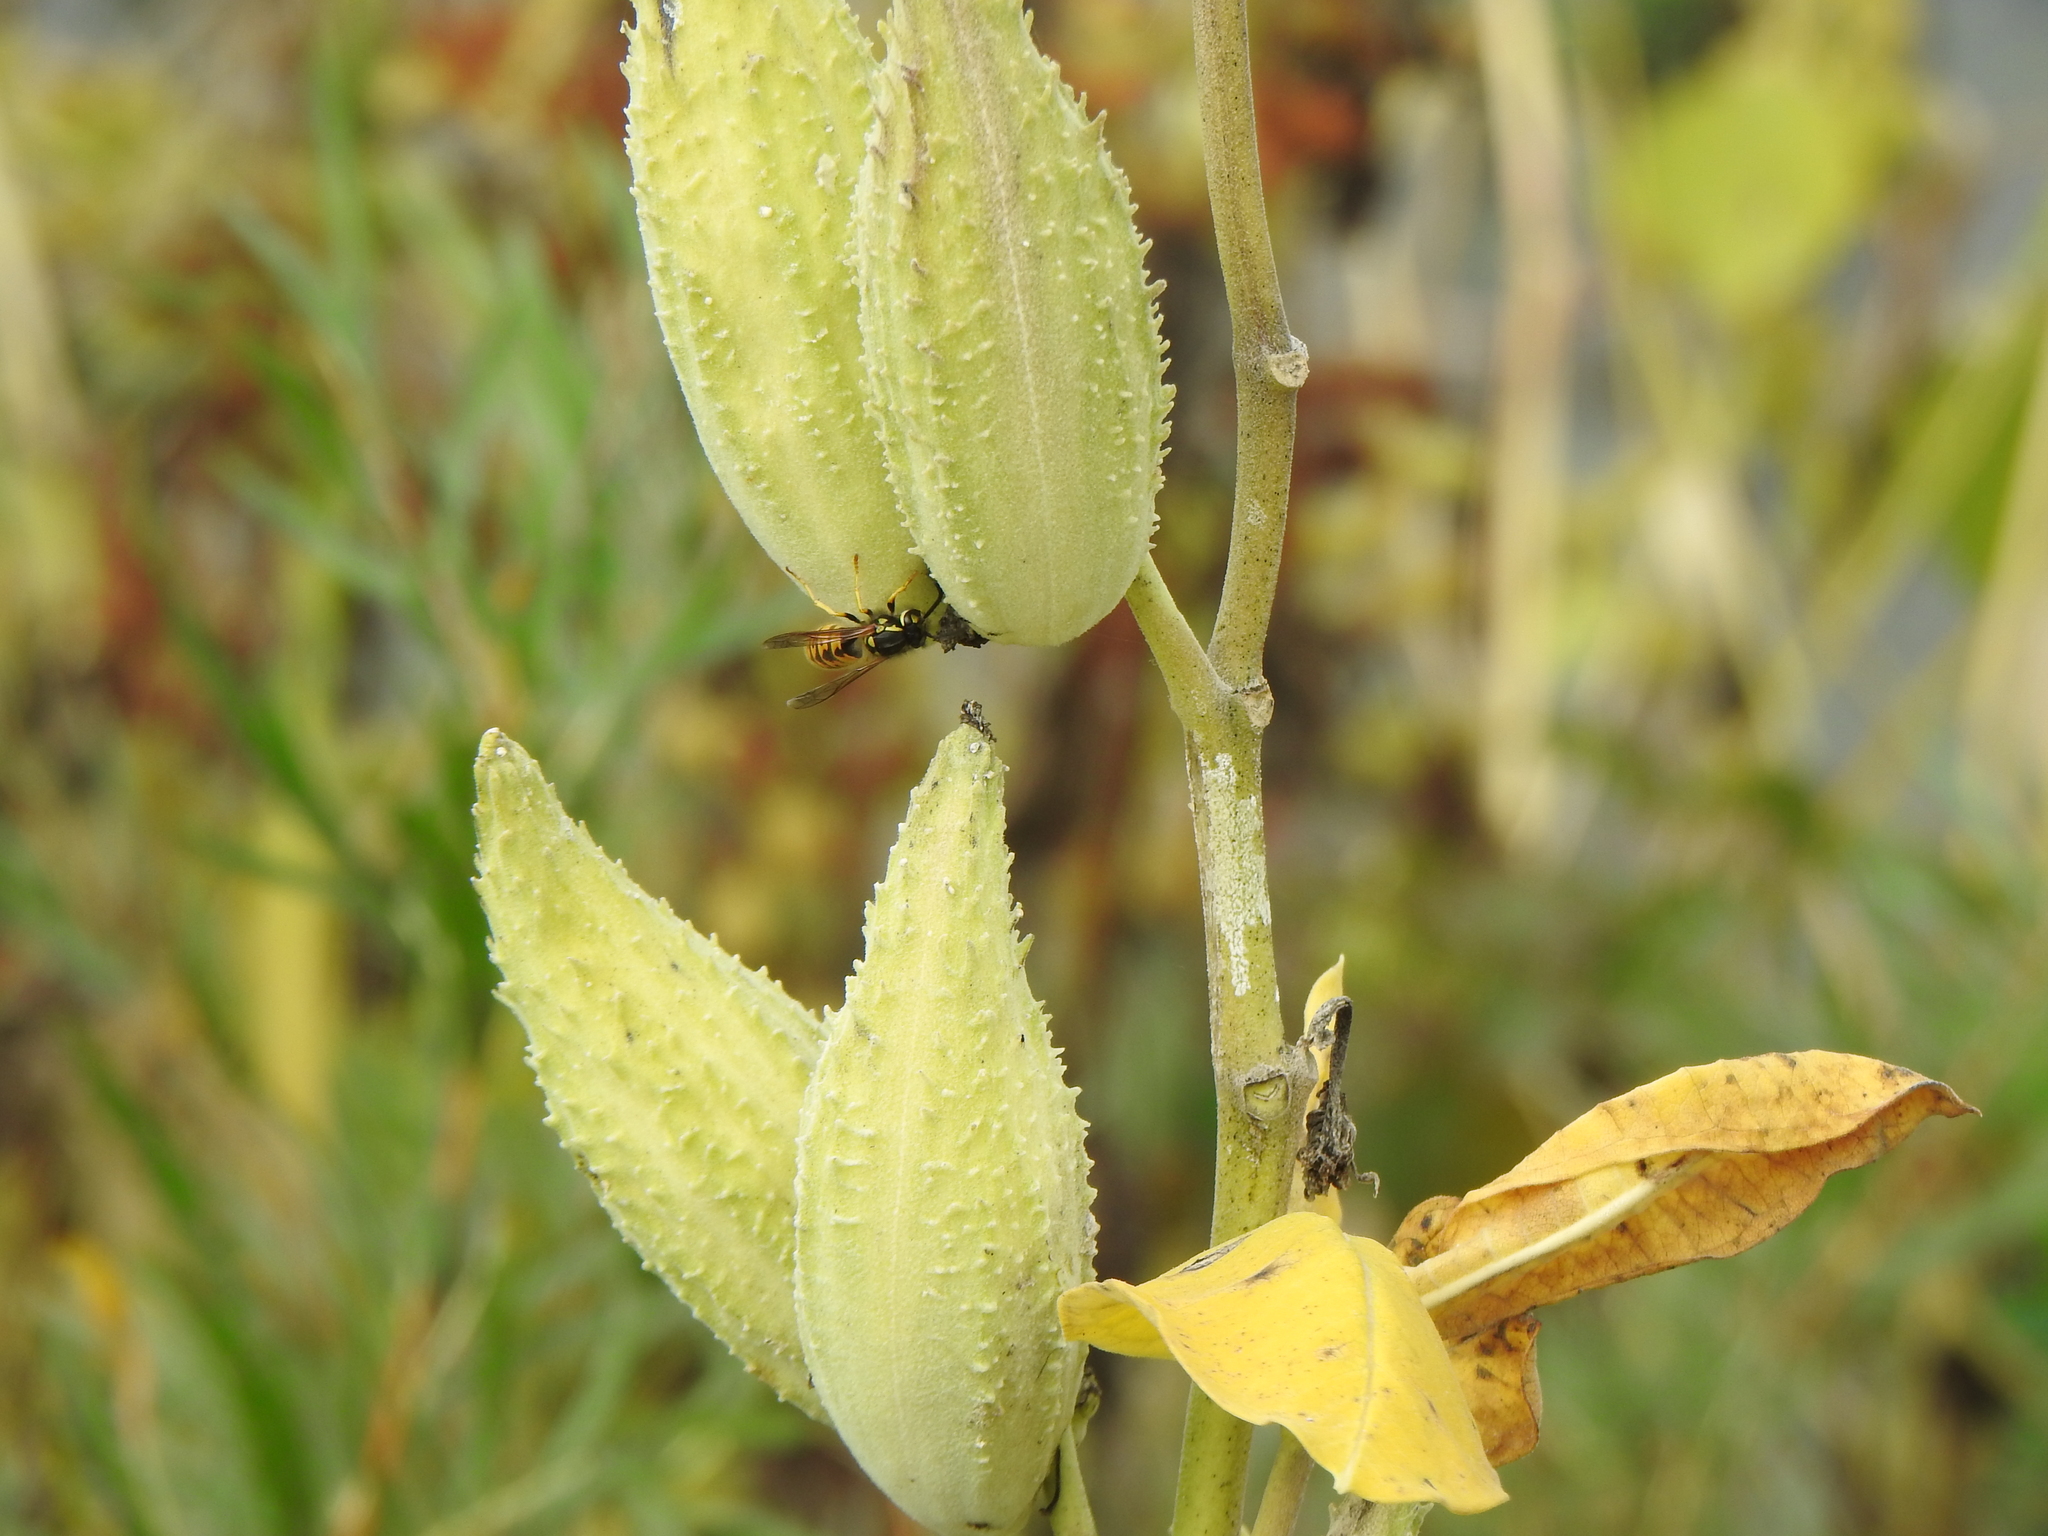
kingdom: Animalia
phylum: Arthropoda
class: Insecta
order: Hymenoptera
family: Vespidae
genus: Vespula
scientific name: Vespula germanica
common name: German wasp
